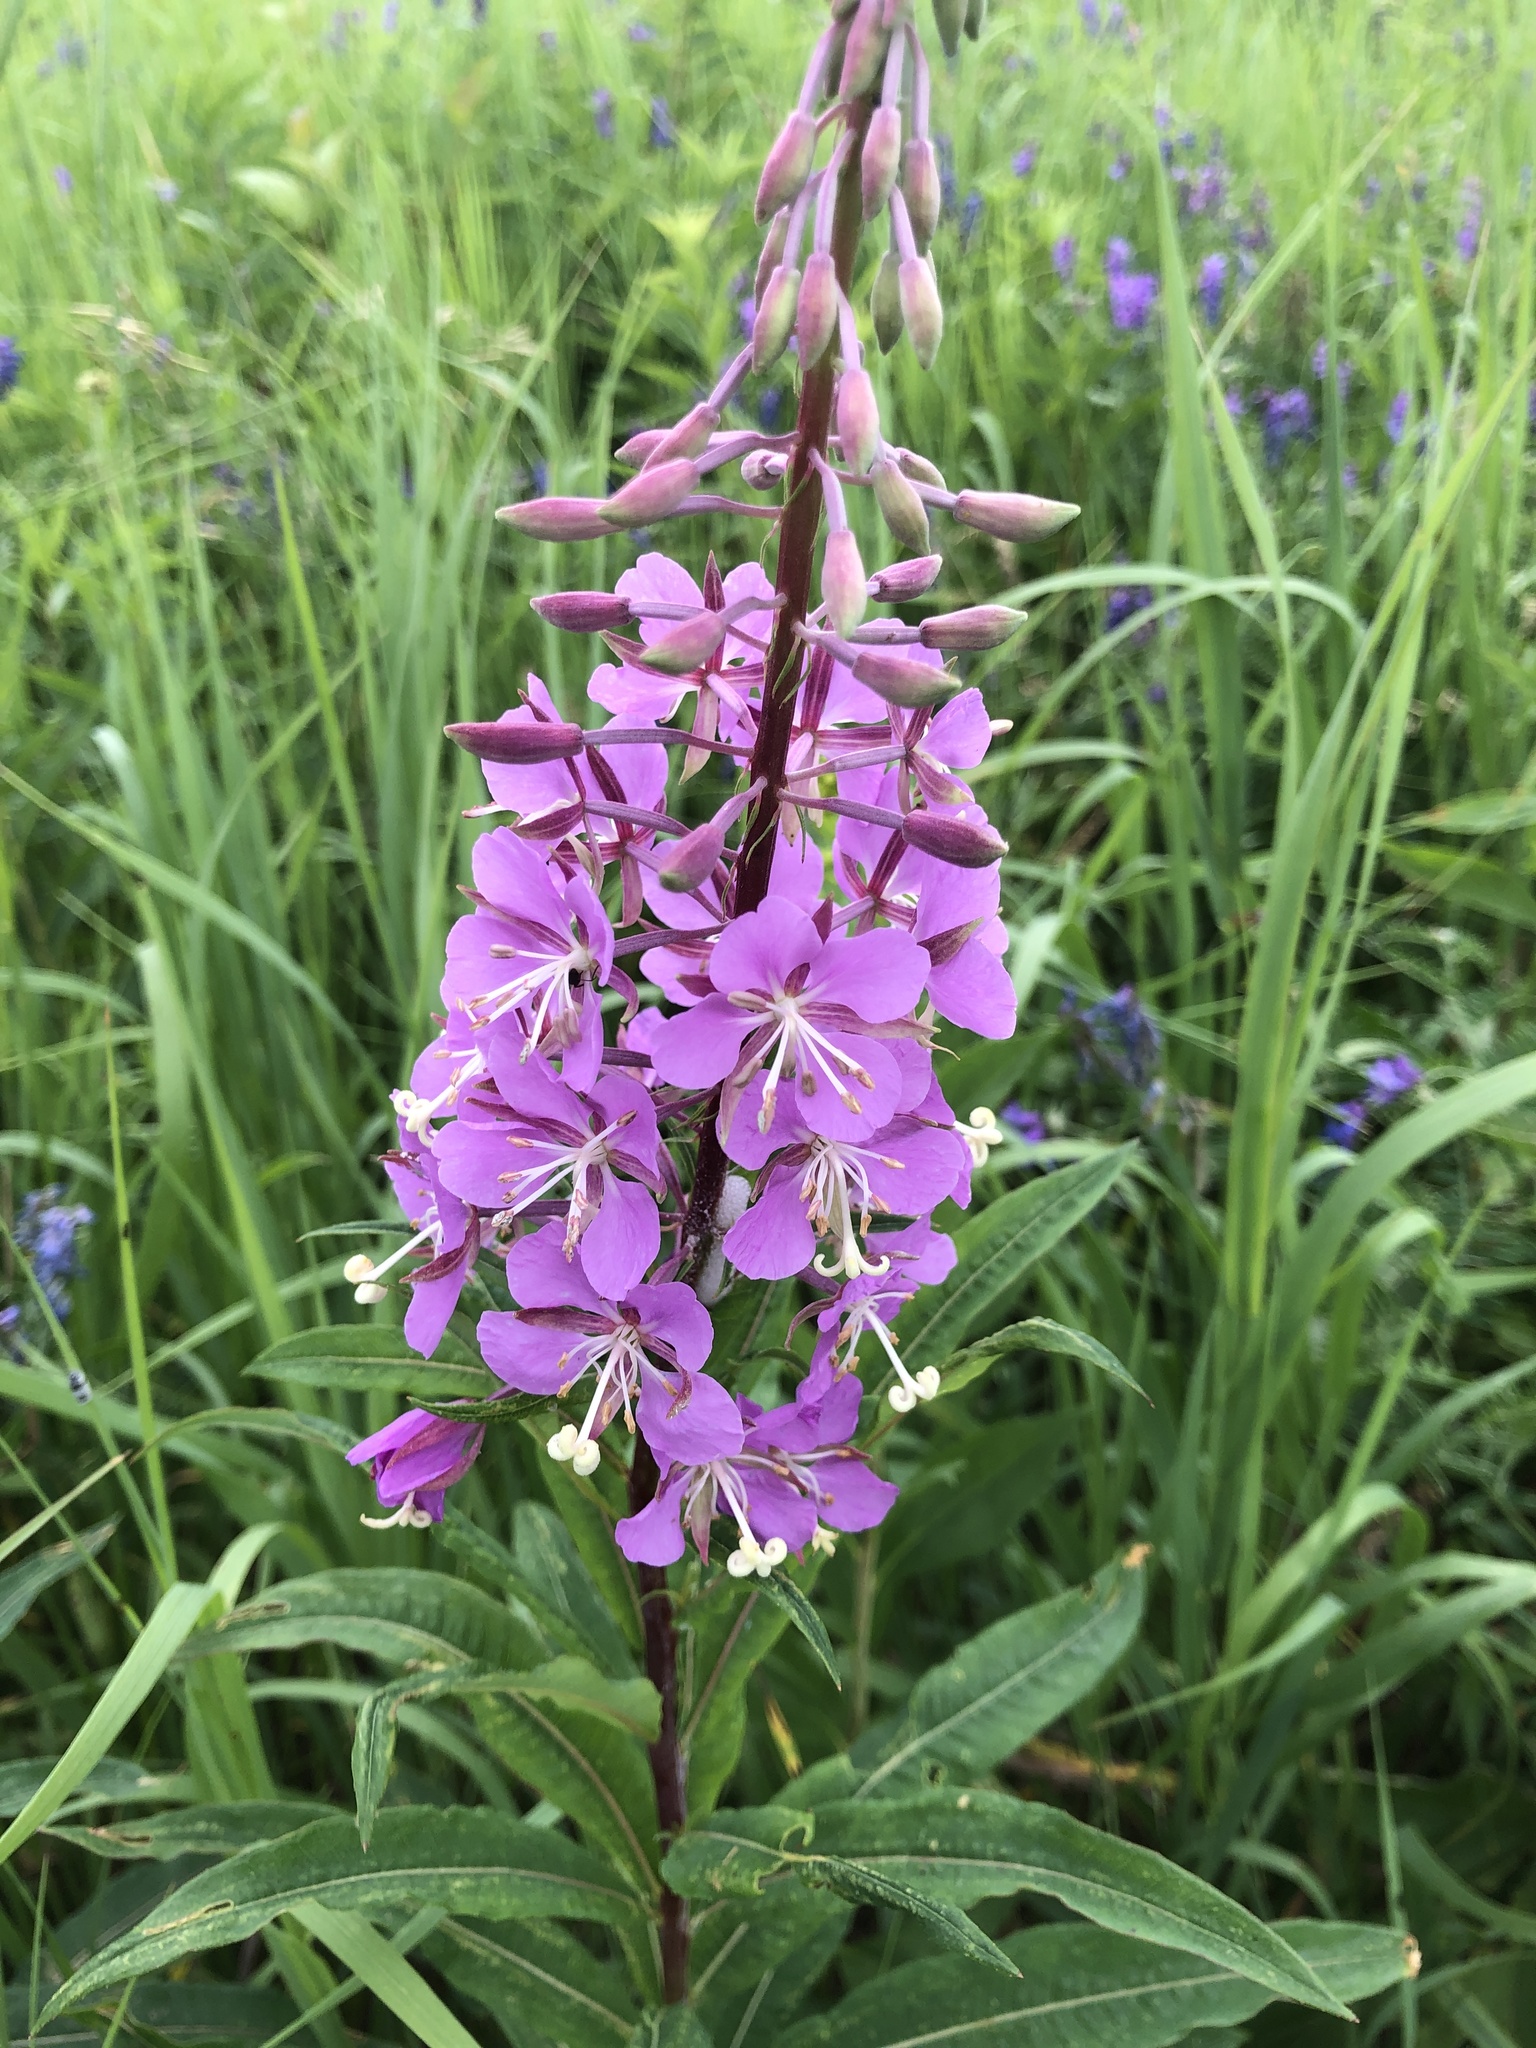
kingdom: Plantae
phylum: Tracheophyta
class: Magnoliopsida
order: Myrtales
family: Onagraceae
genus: Chamaenerion
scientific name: Chamaenerion angustifolium
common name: Fireweed
